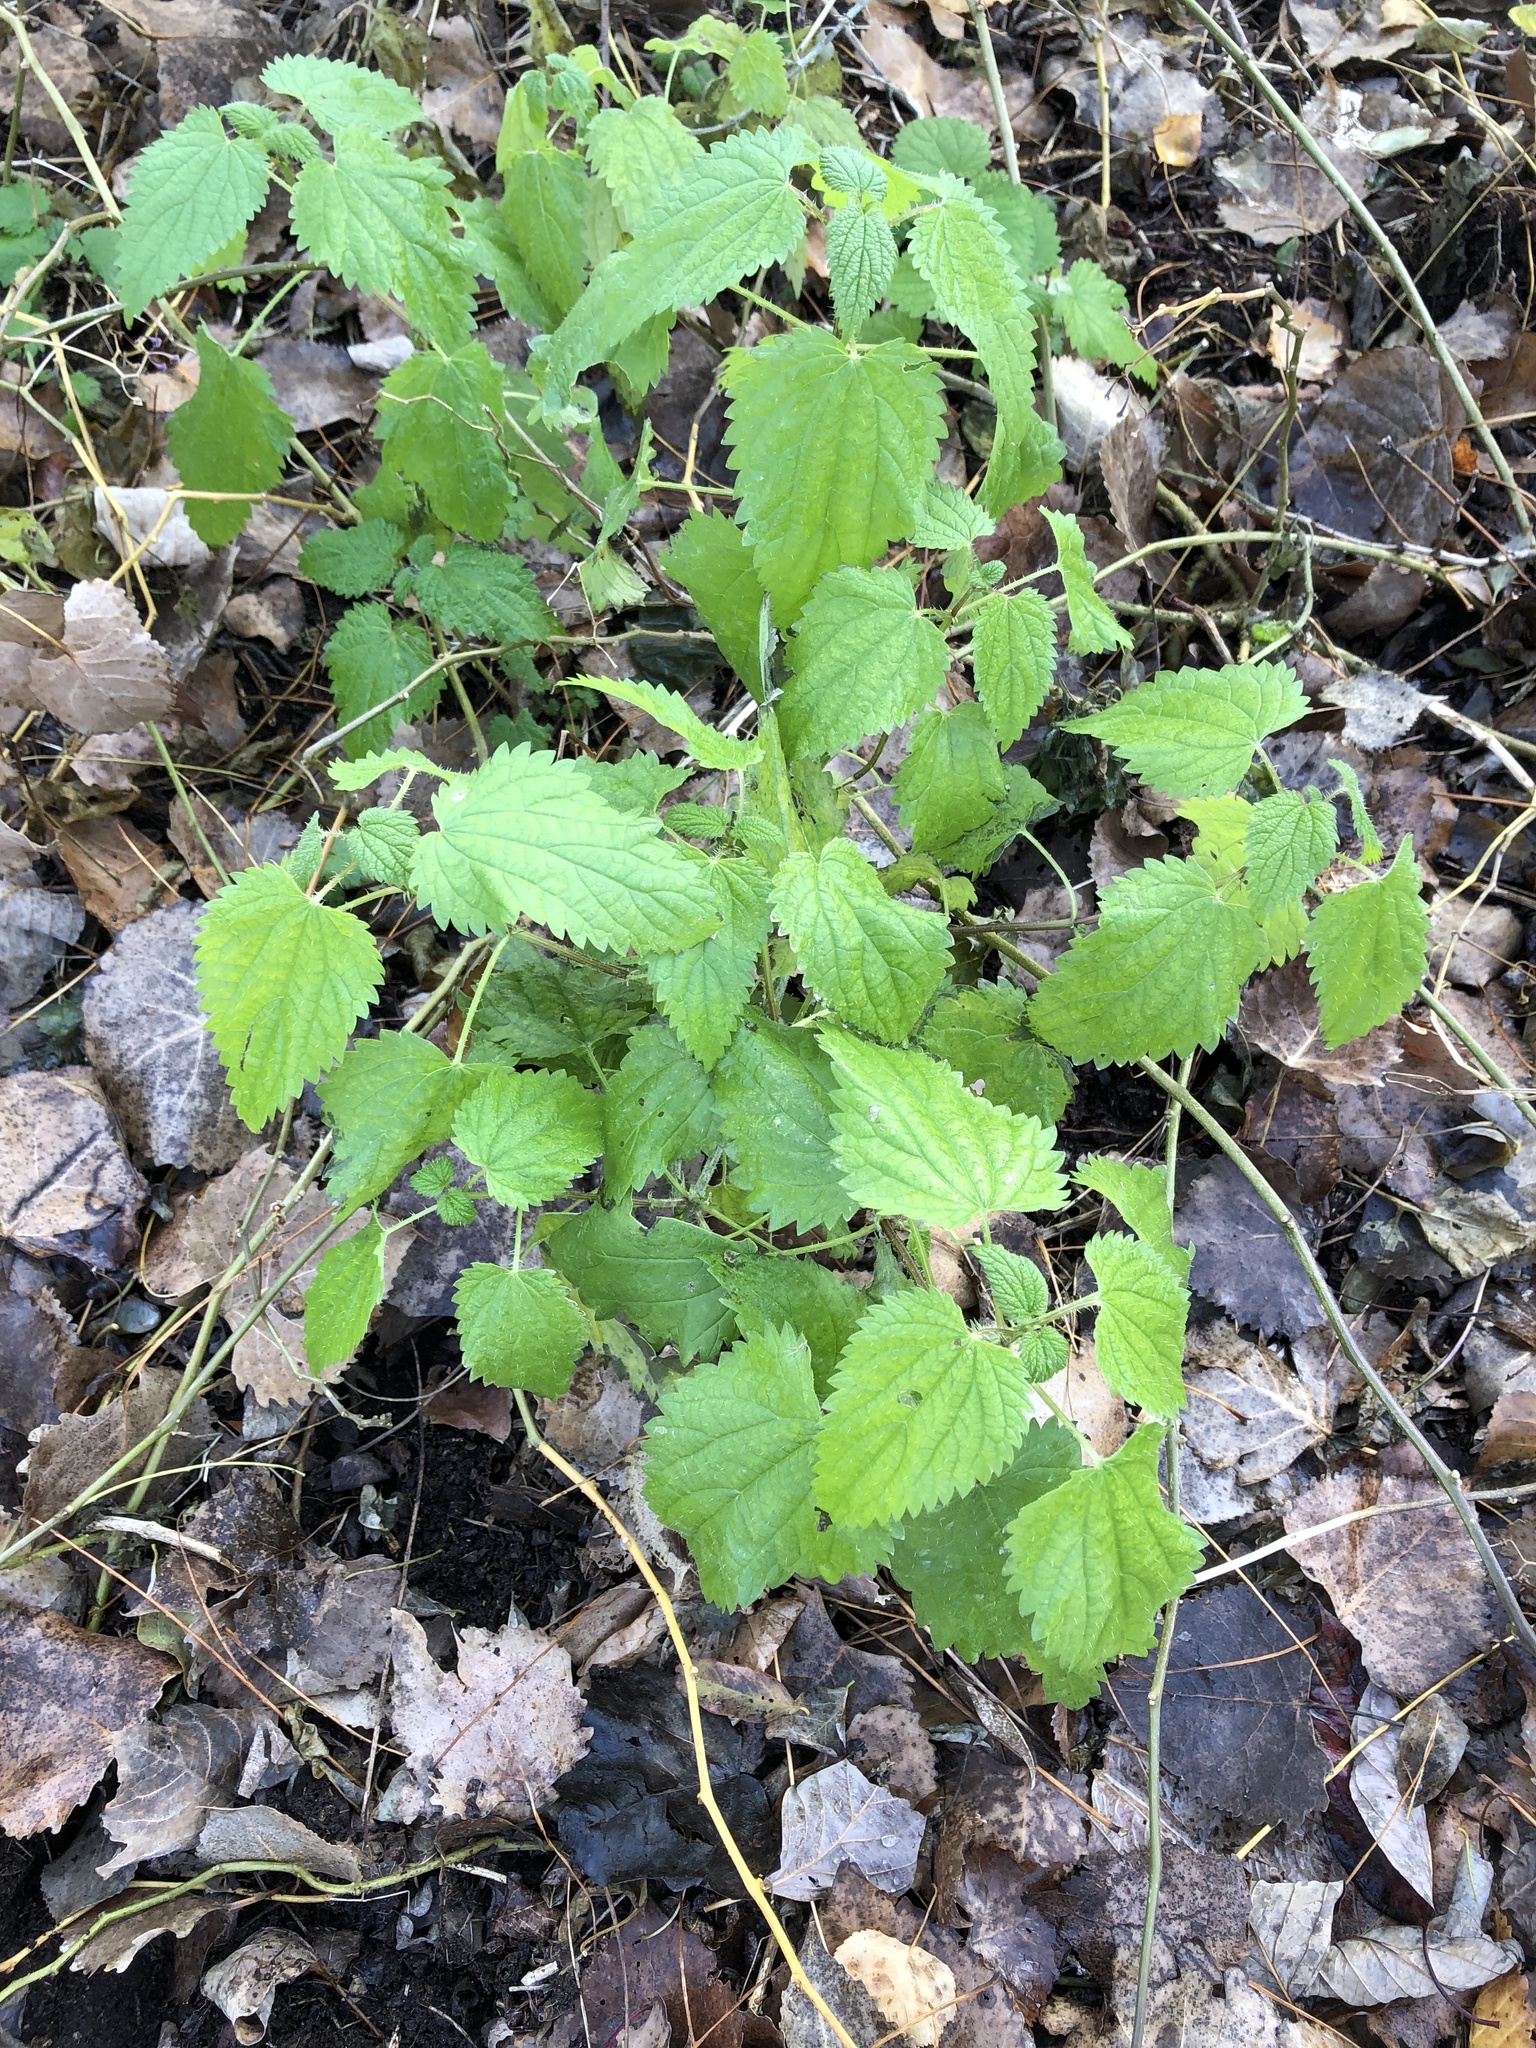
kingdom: Plantae
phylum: Tracheophyta
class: Magnoliopsida
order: Rosales
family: Urticaceae
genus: Urtica
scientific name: Urtica dioica
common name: Common nettle
